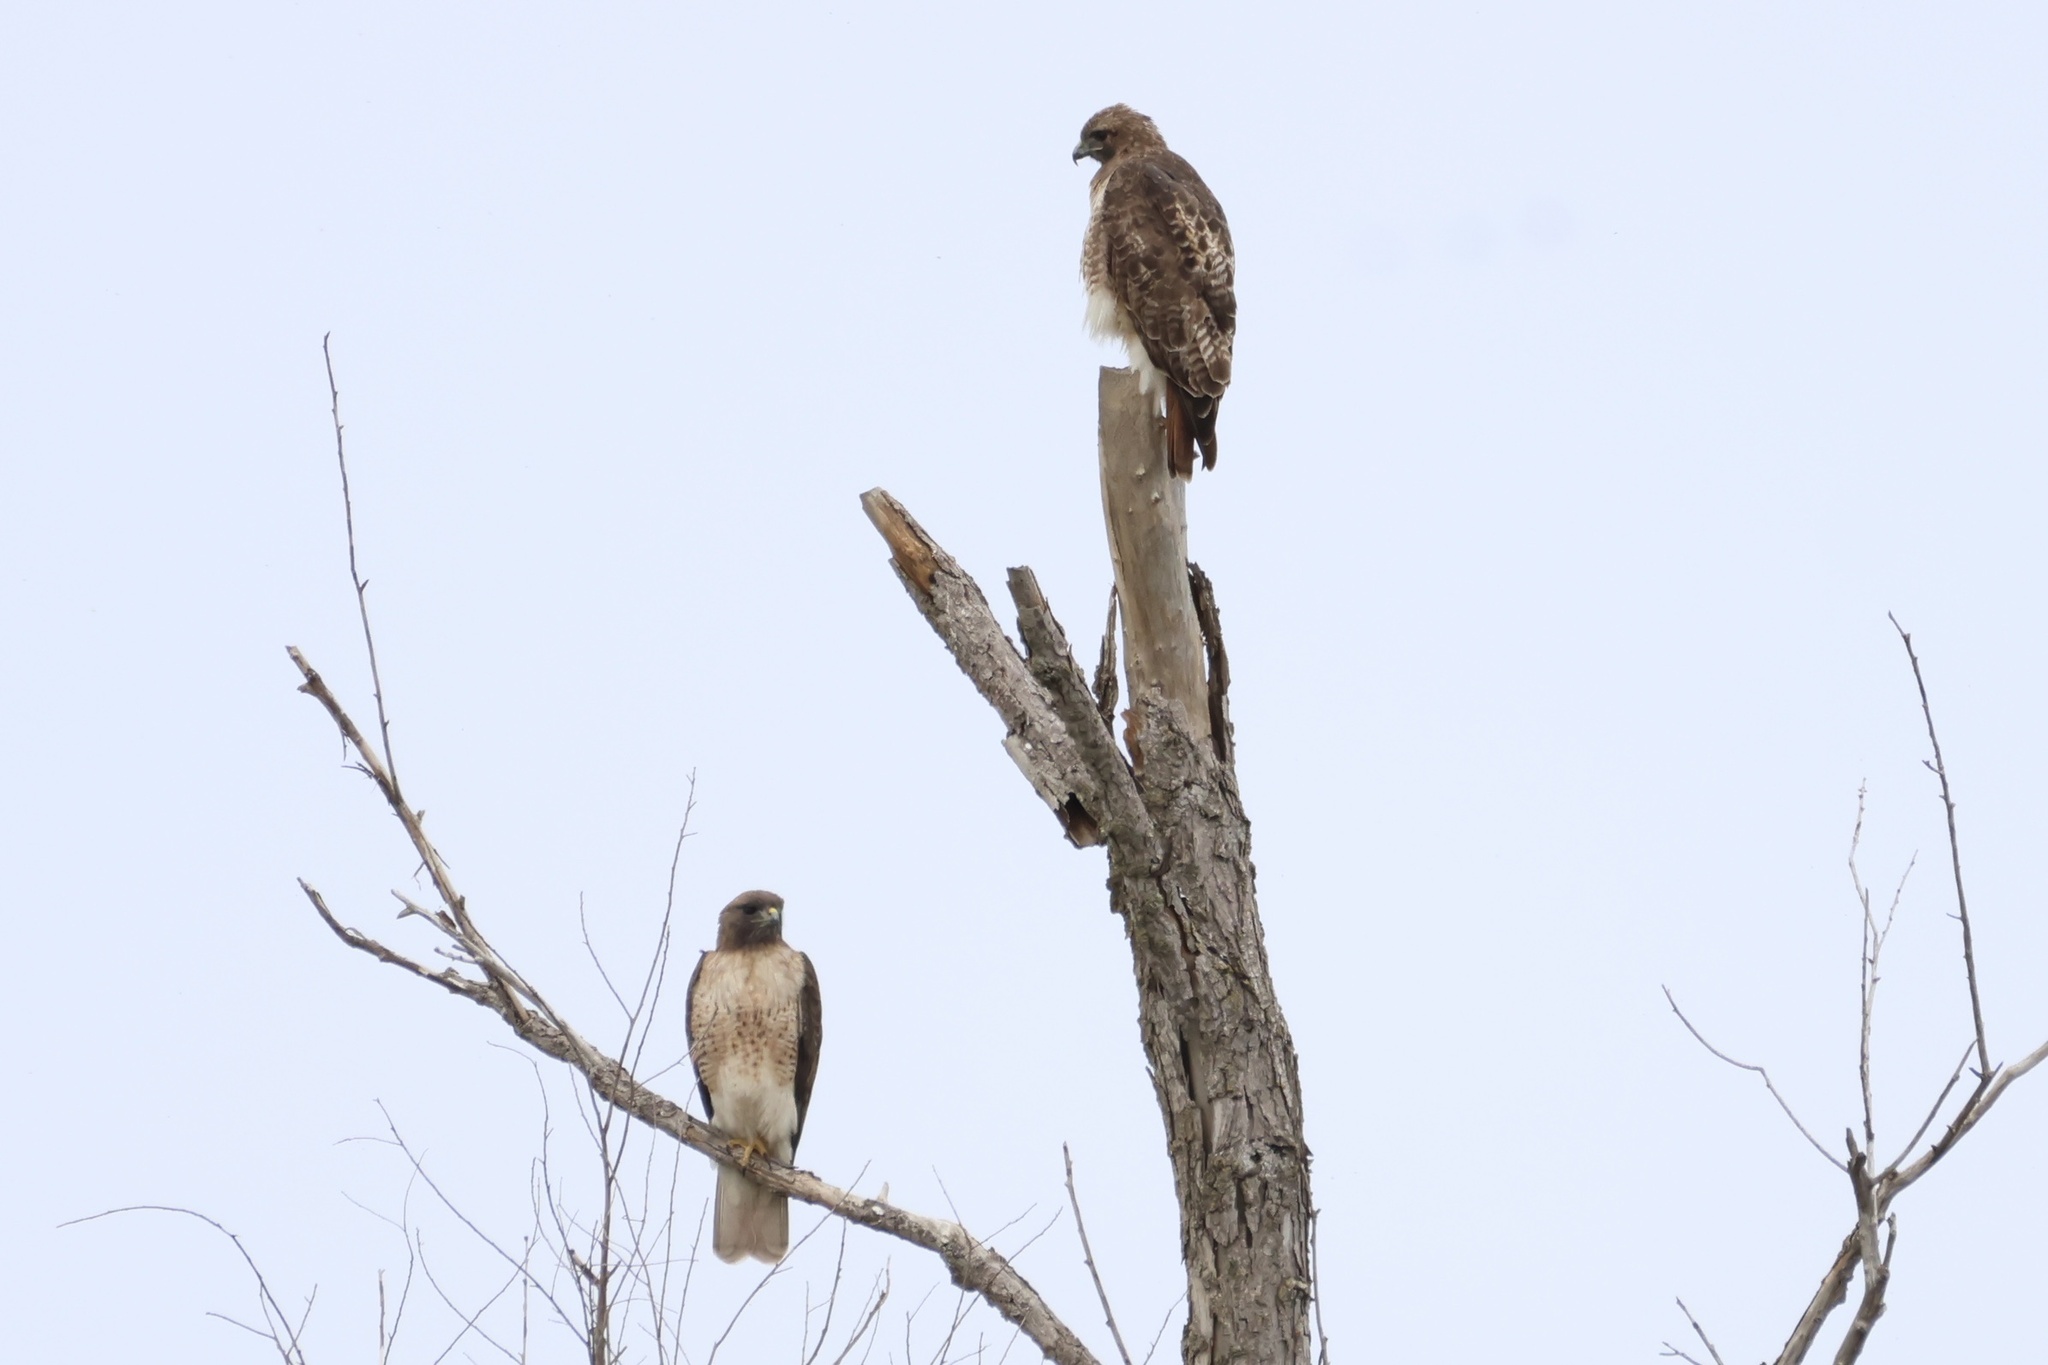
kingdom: Animalia
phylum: Chordata
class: Aves
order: Accipitriformes
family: Accipitridae
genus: Buteo
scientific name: Buteo jamaicensis
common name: Red-tailed hawk
